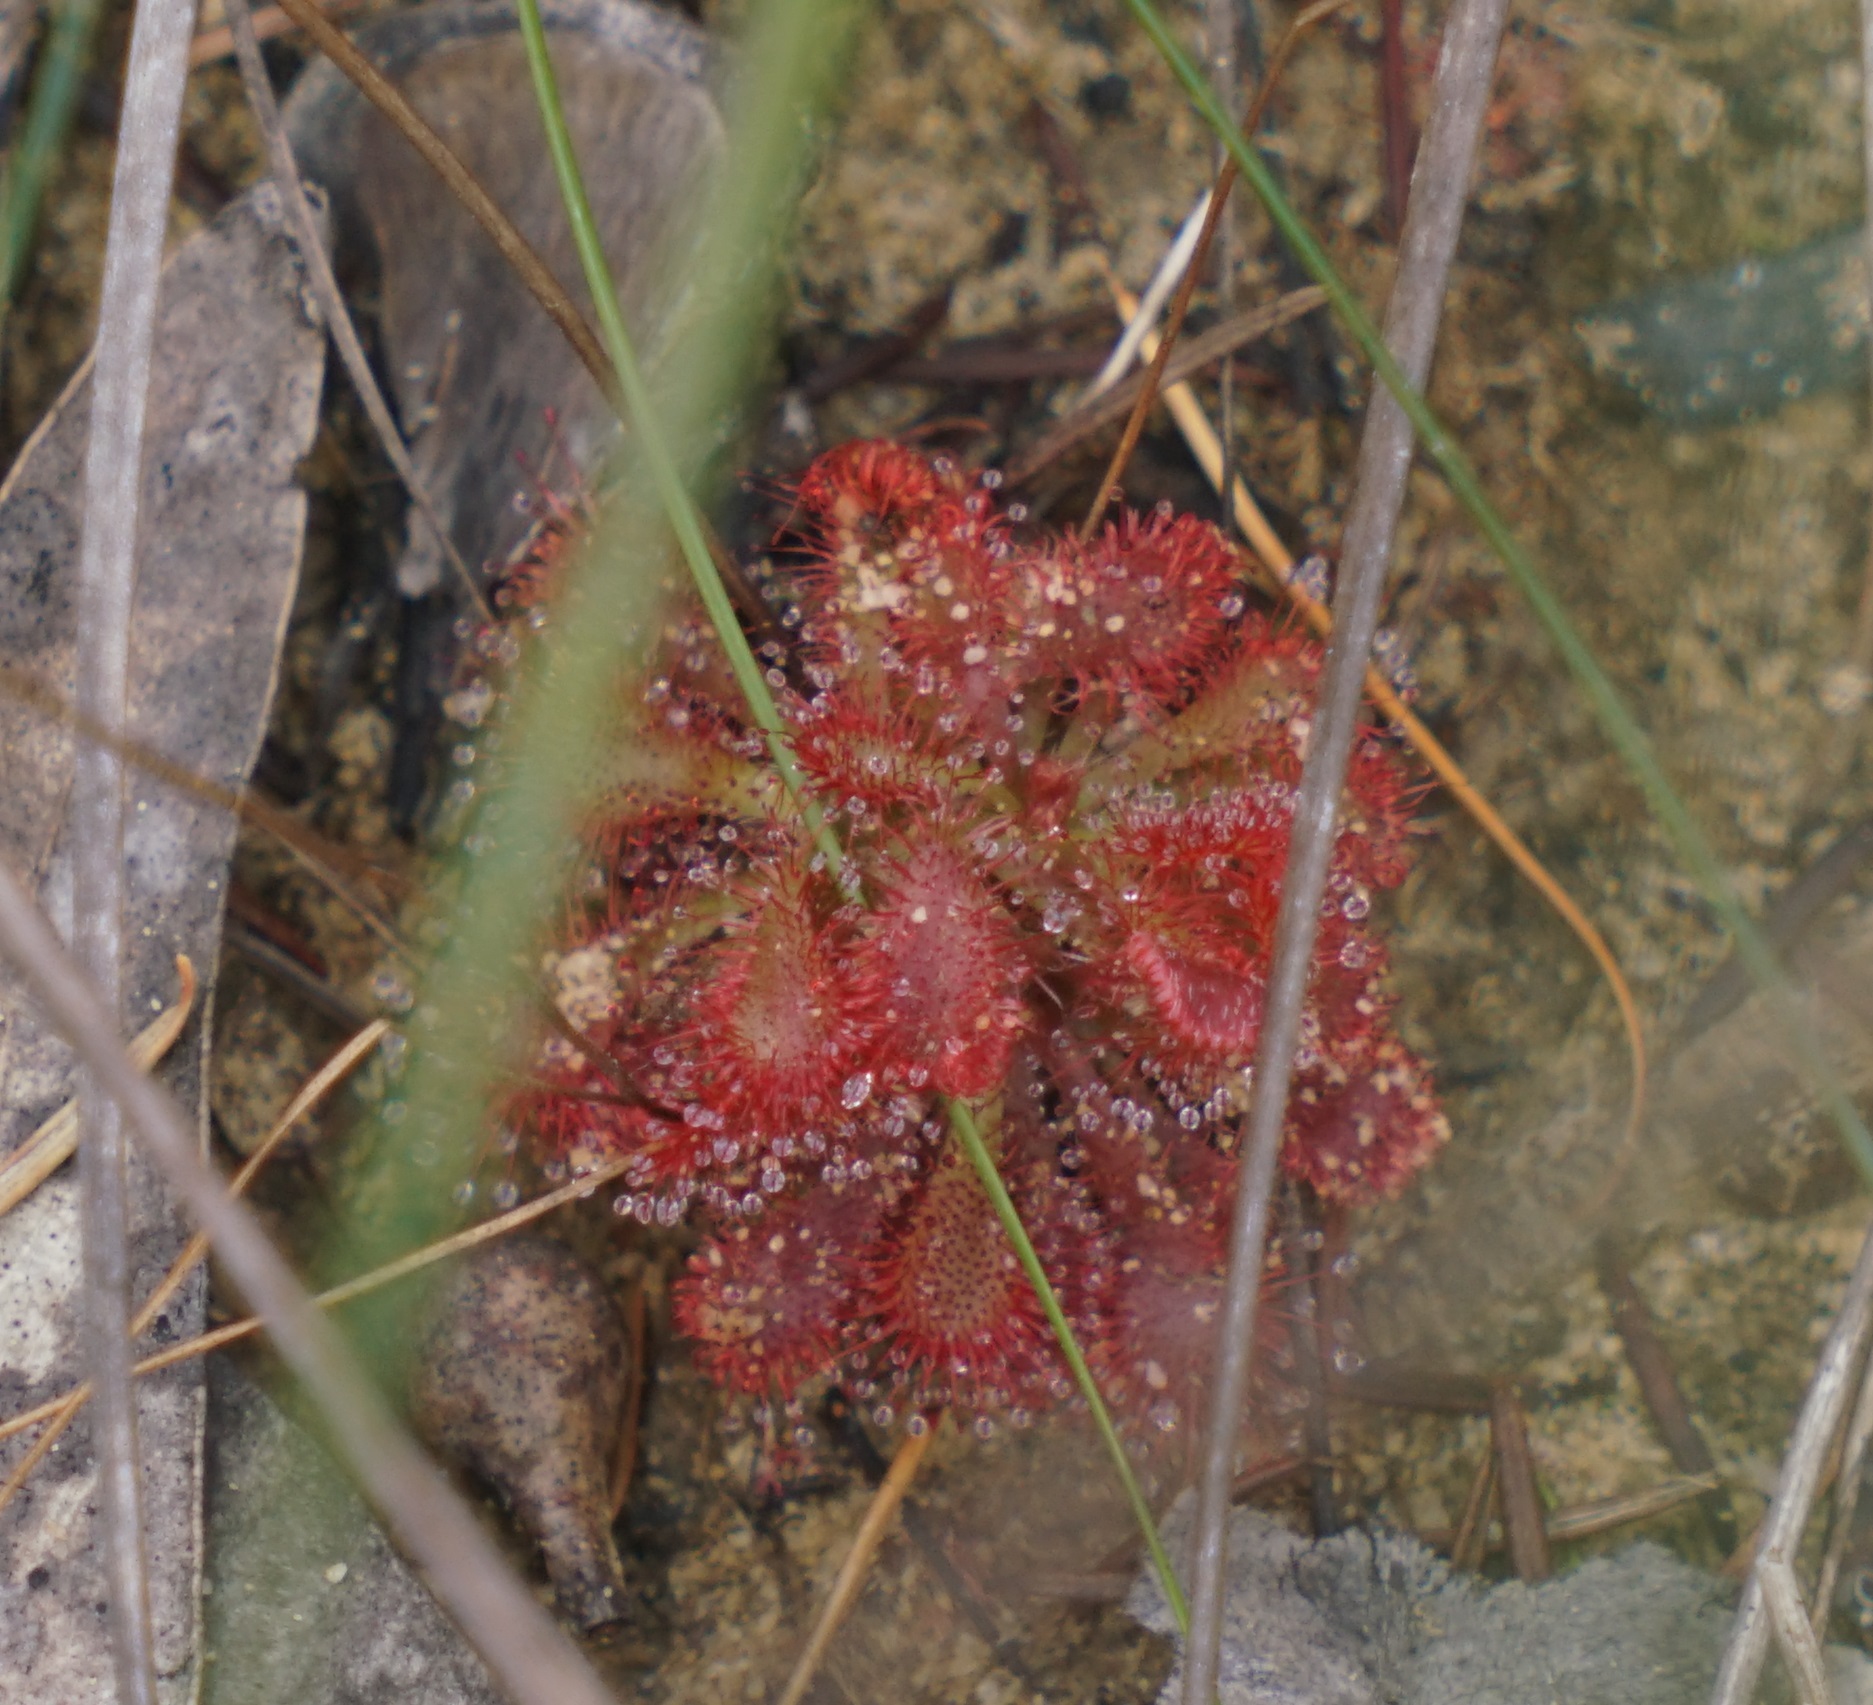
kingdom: Plantae
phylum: Tracheophyta
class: Magnoliopsida
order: Caryophyllales
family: Droseraceae
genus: Drosera
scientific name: Drosera spatulata
